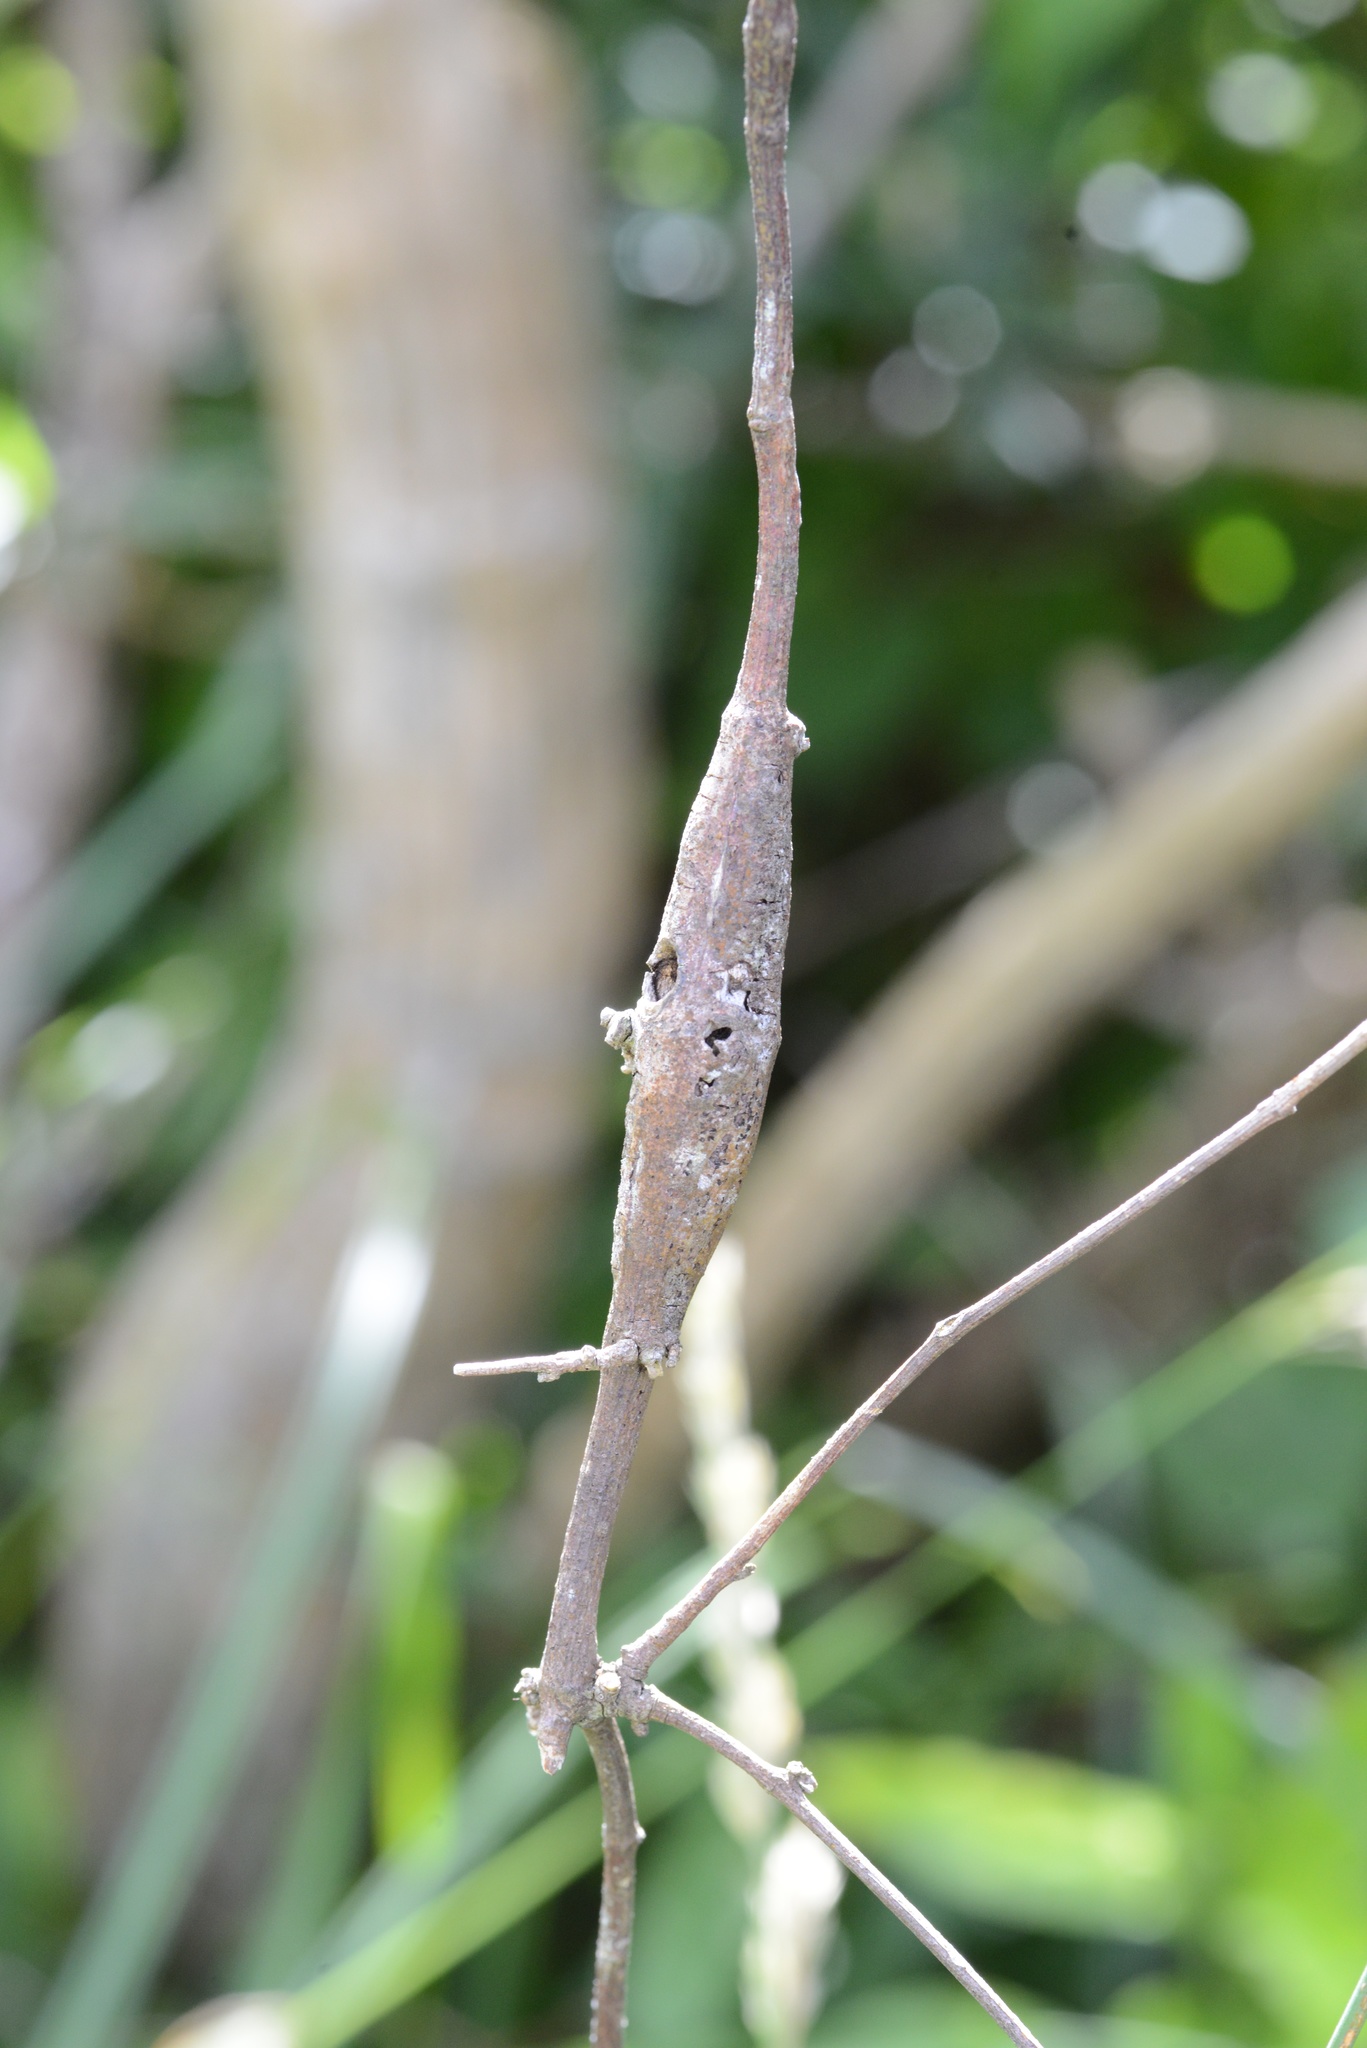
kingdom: Animalia
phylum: Arthropoda
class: Insecta
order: Lepidoptera
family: Thyrididae
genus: Morova
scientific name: Morova subfasciata
